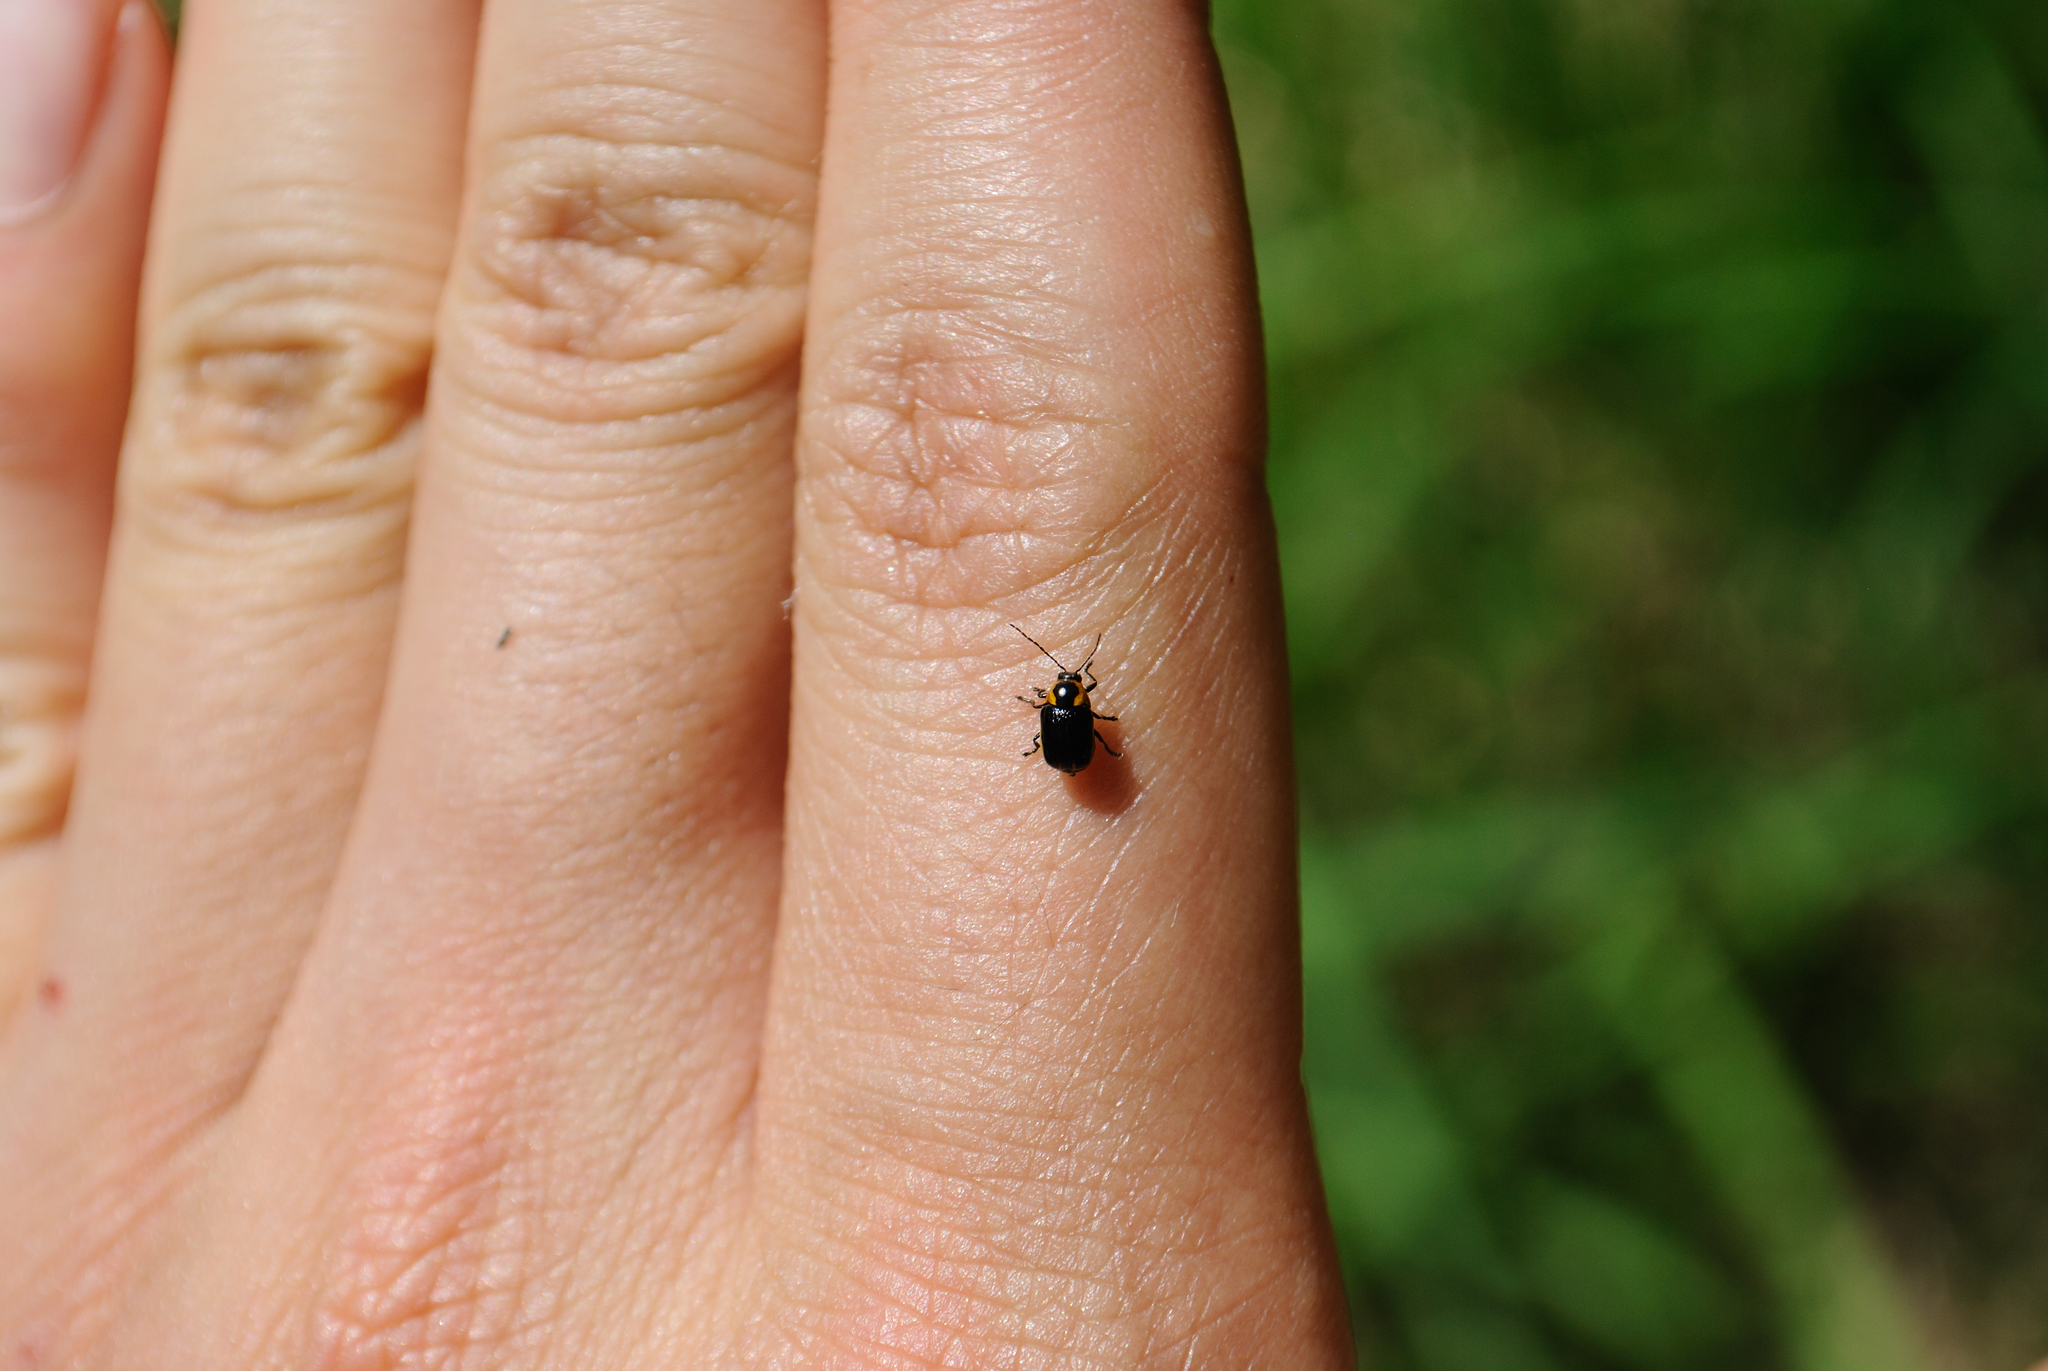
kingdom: Animalia
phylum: Arthropoda
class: Insecta
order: Coleoptera
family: Chrysomelidae
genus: Bassareus
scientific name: Bassareus lituratus
